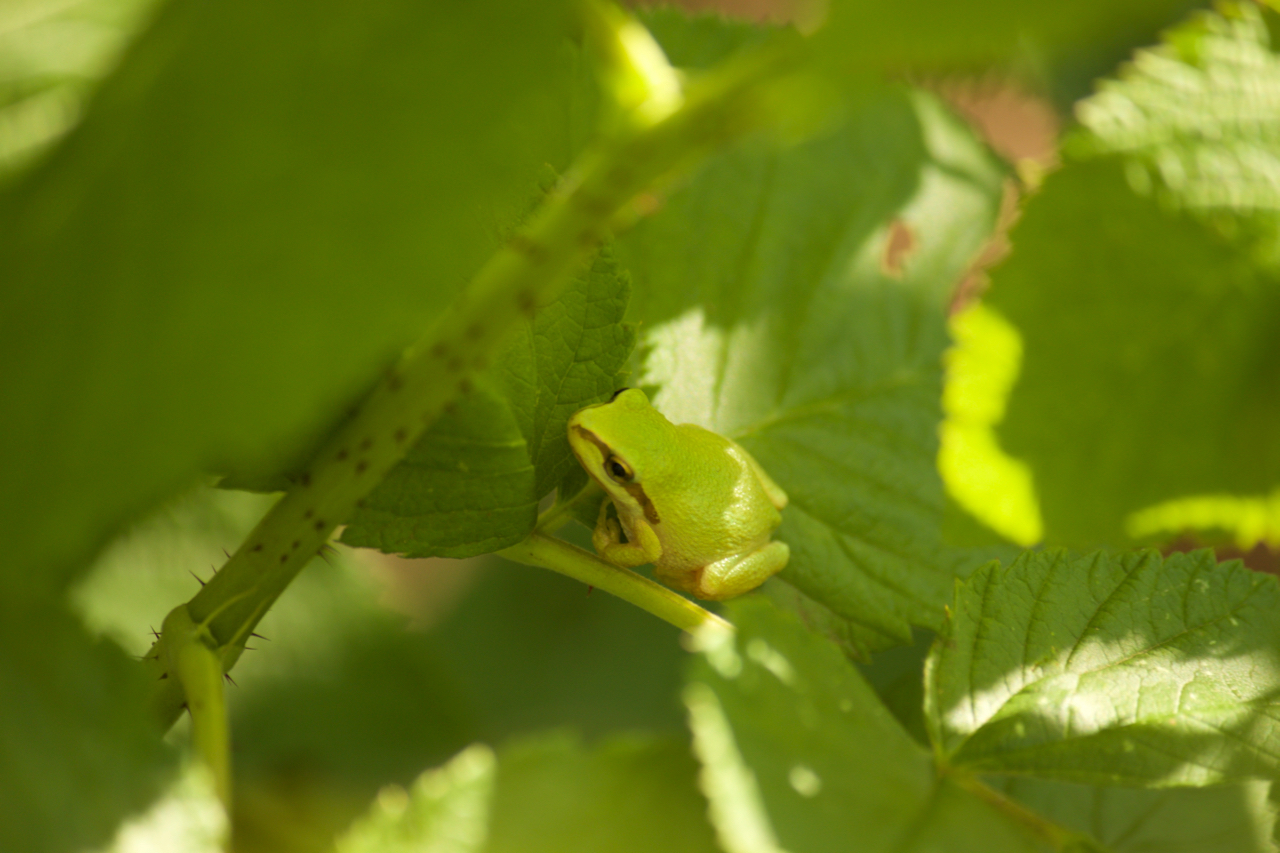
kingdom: Animalia
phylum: Chordata
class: Amphibia
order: Anura
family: Hylidae
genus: Pseudacris
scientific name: Pseudacris regilla
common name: Pacific chorus frog
